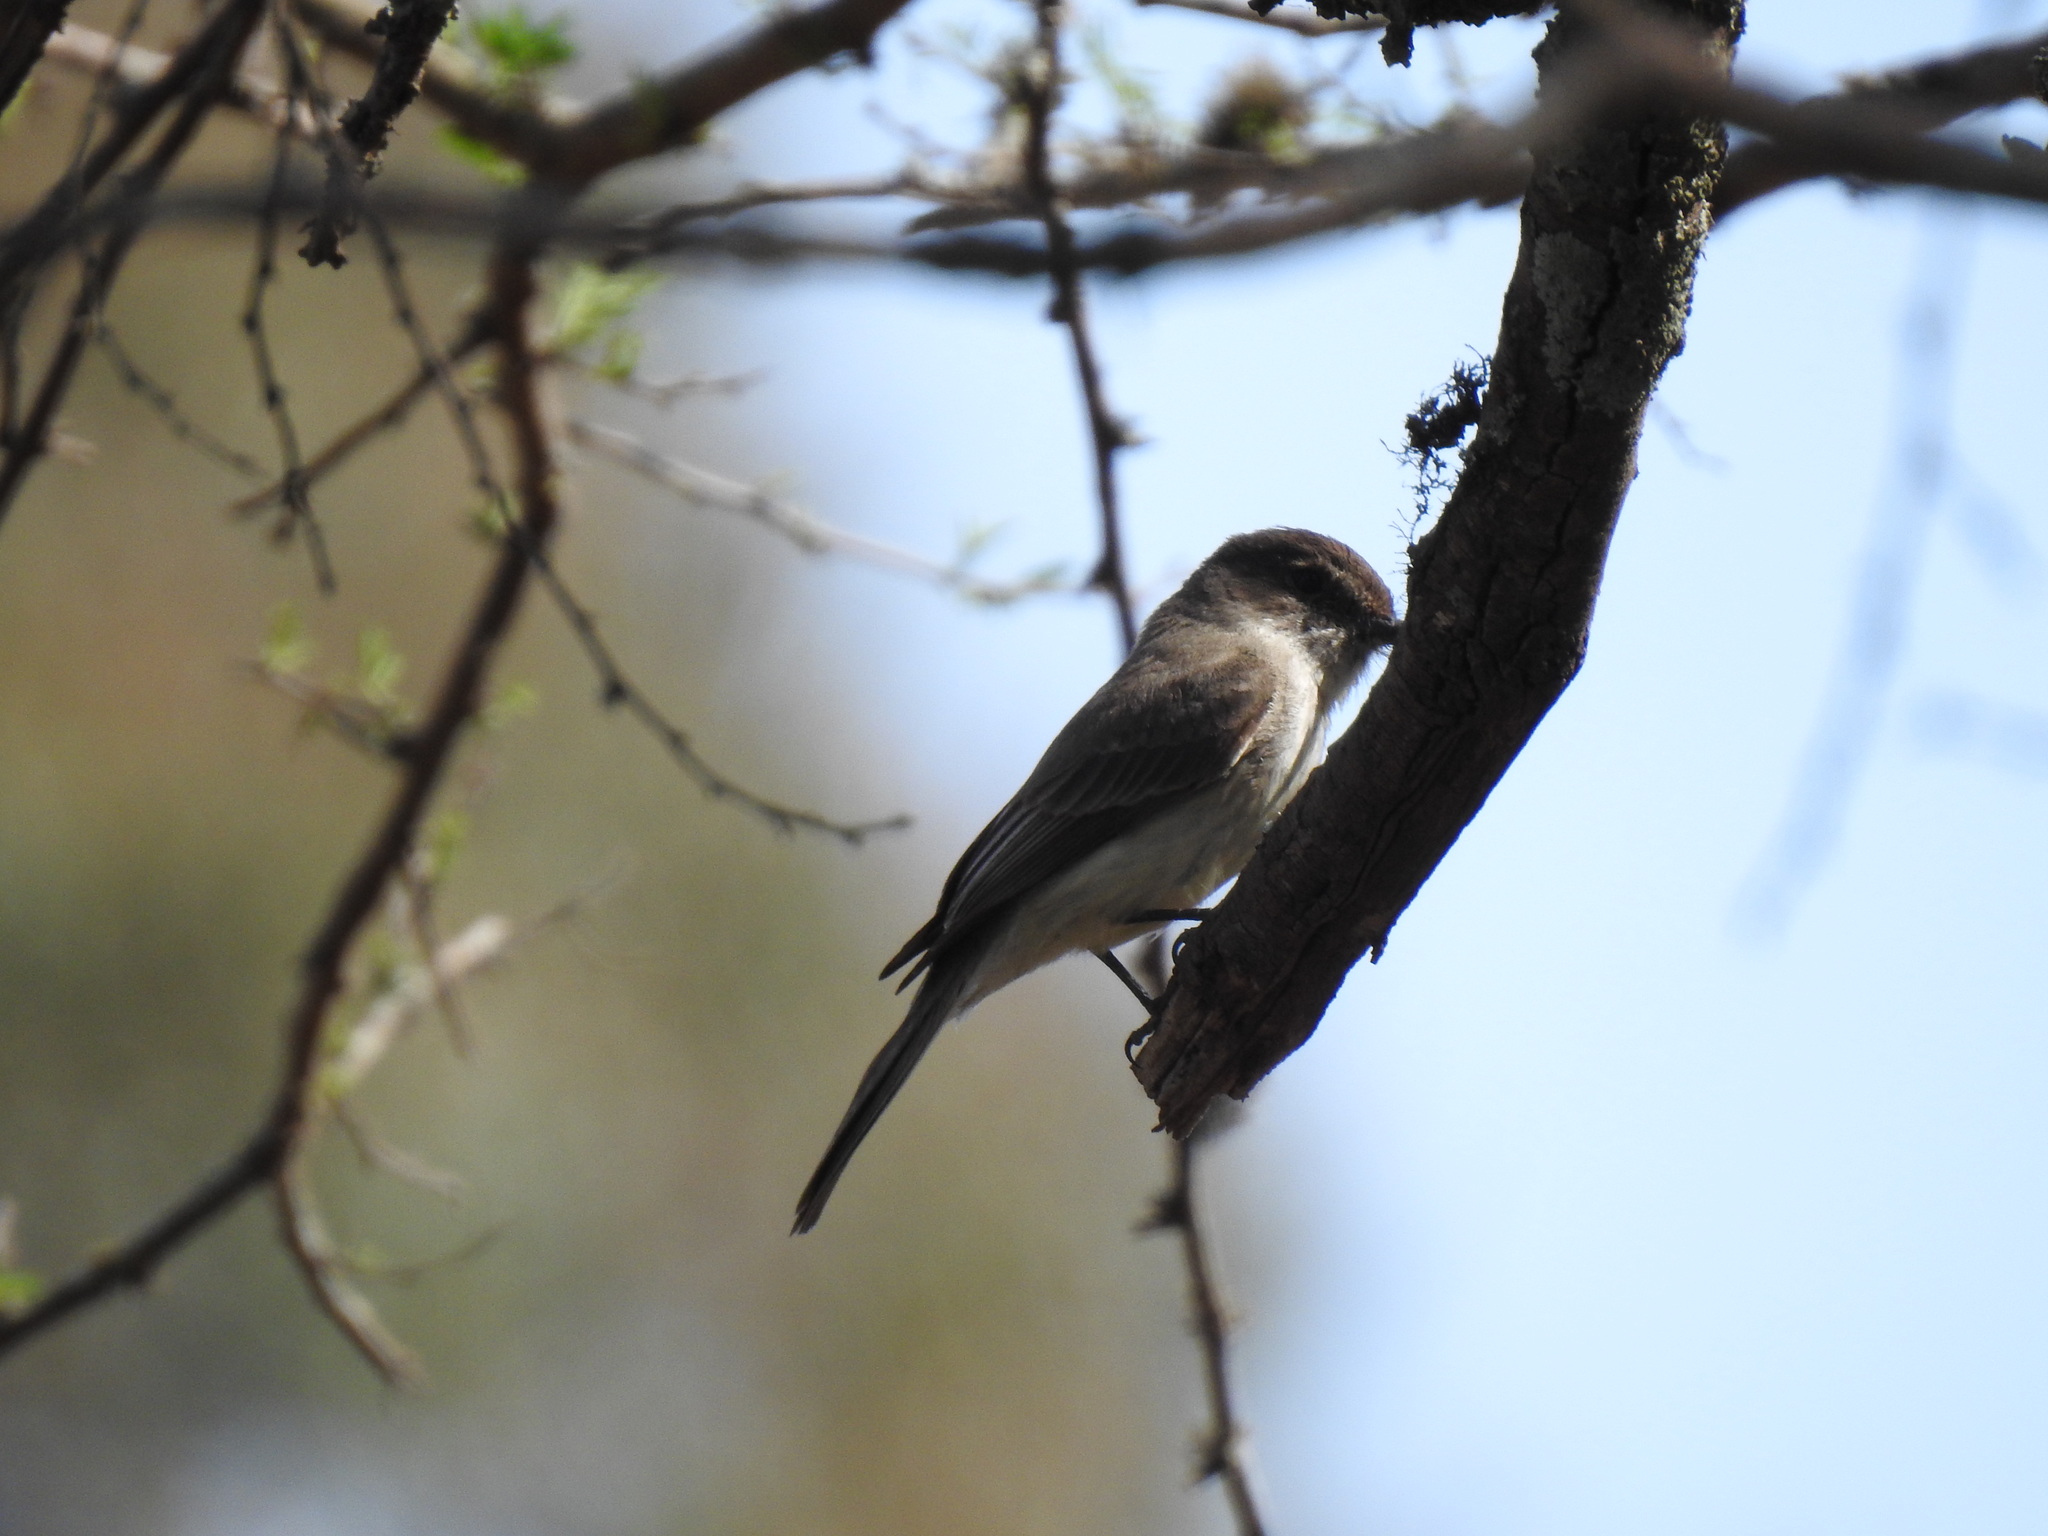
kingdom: Animalia
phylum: Chordata
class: Aves
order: Passeriformes
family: Tyrannidae
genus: Sayornis
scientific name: Sayornis phoebe
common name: Eastern phoebe
